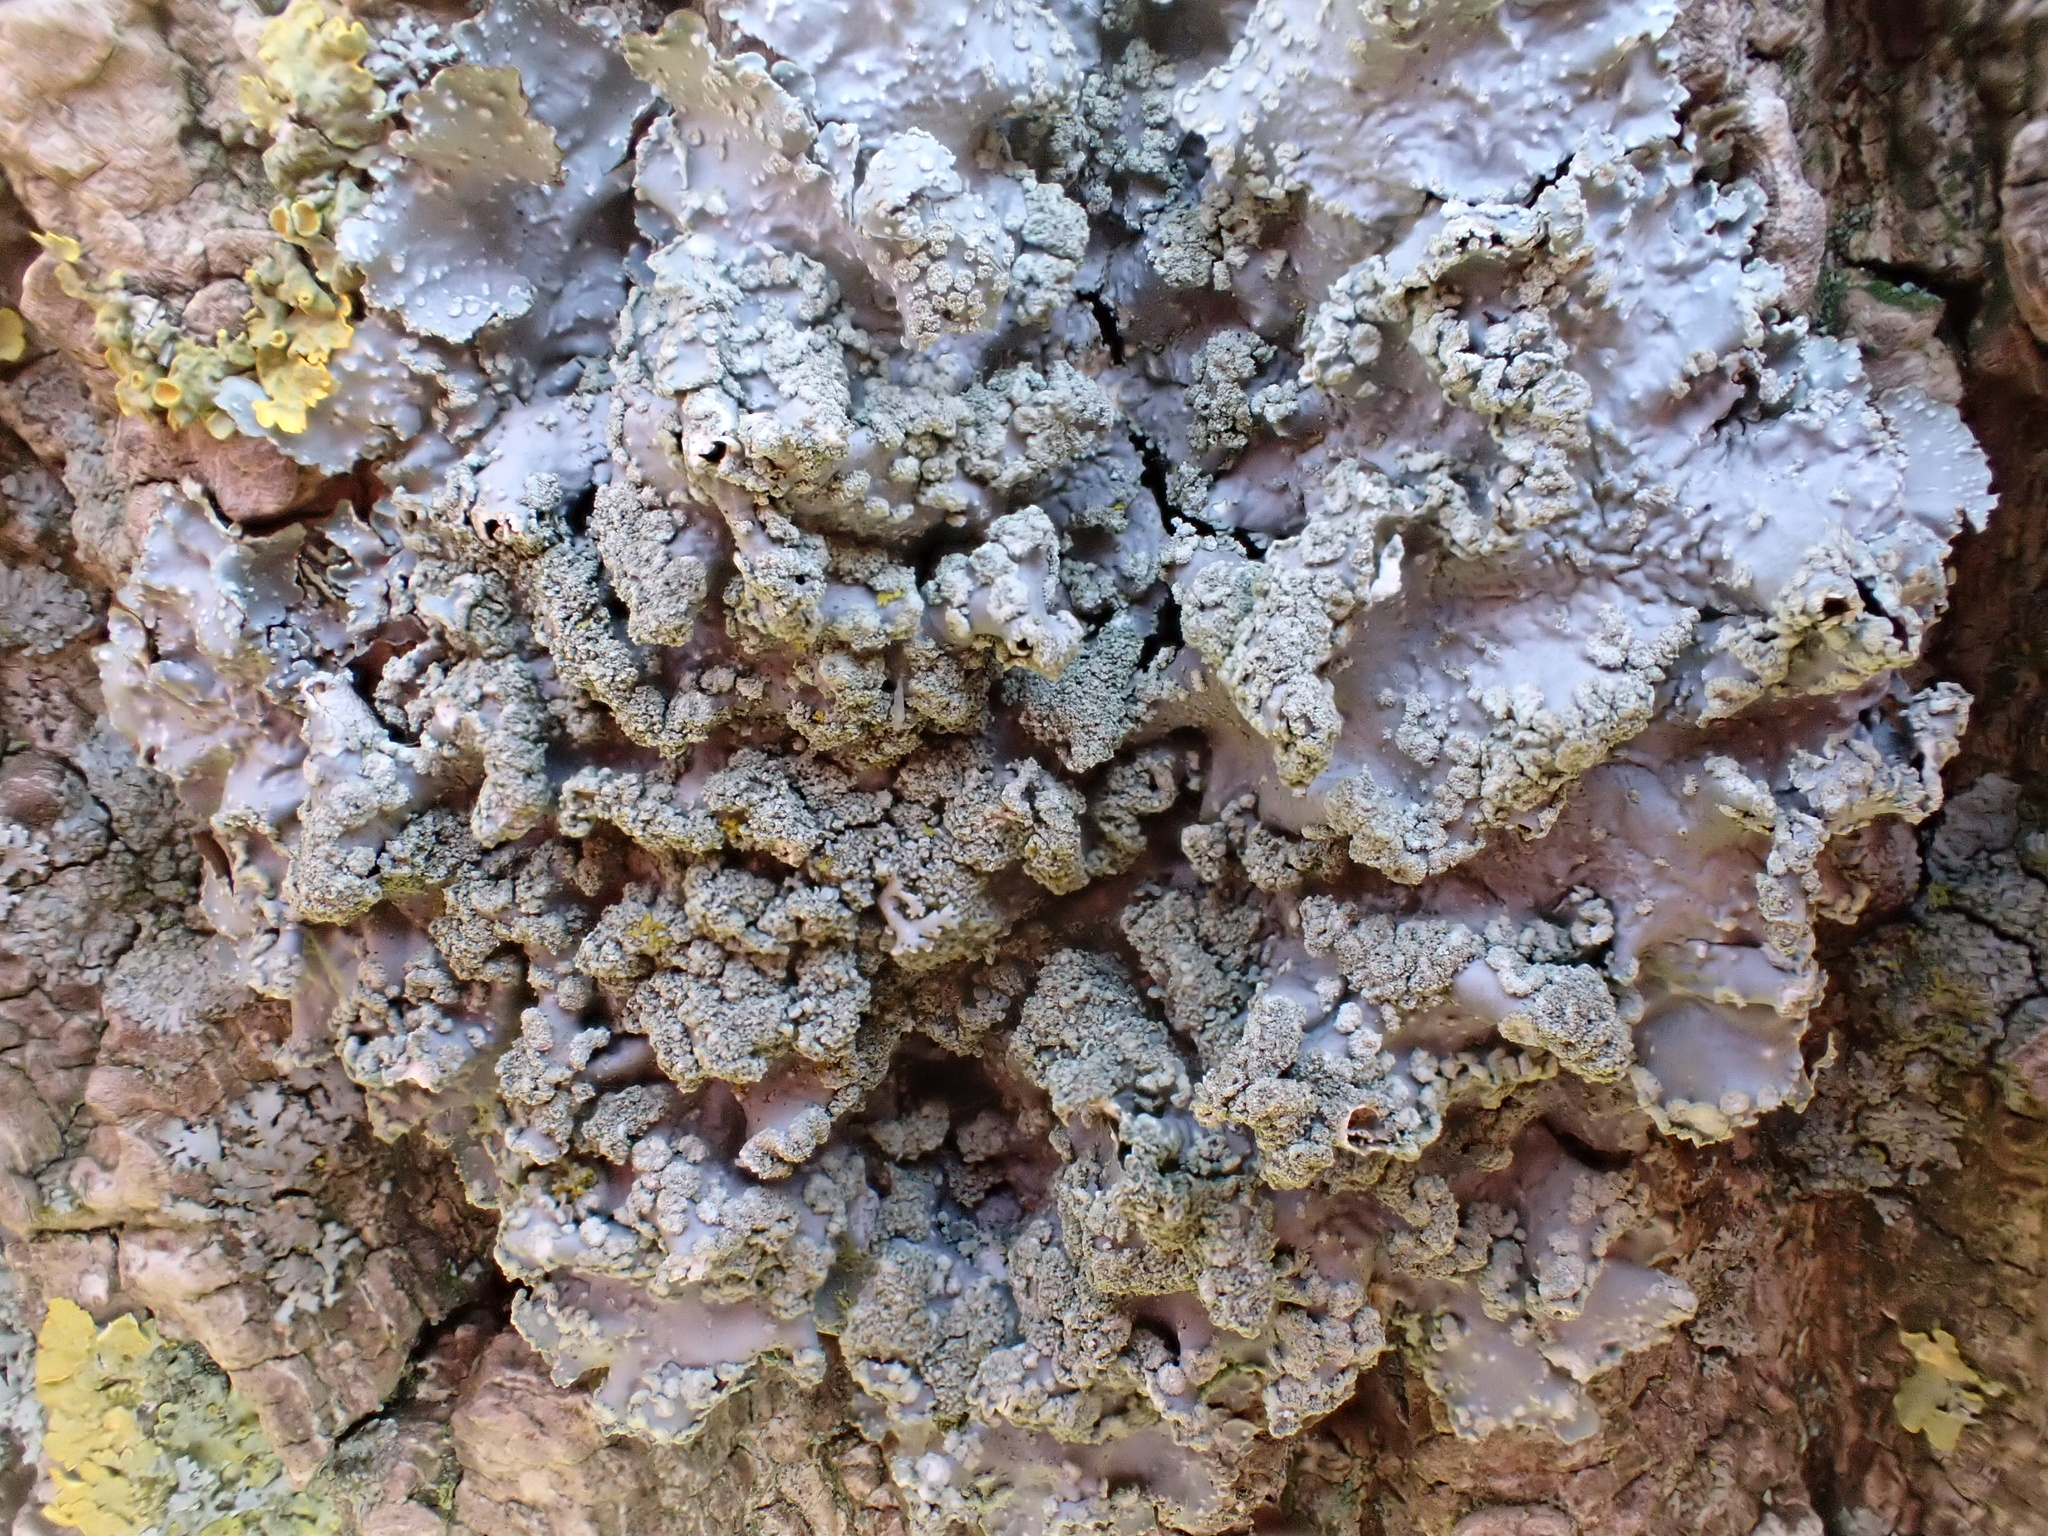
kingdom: Fungi
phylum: Ascomycota
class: Lecanoromycetes
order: Lecanorales
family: Parmeliaceae
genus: Punctelia
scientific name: Punctelia subrudecta
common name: Powdered speckled shield lichen
